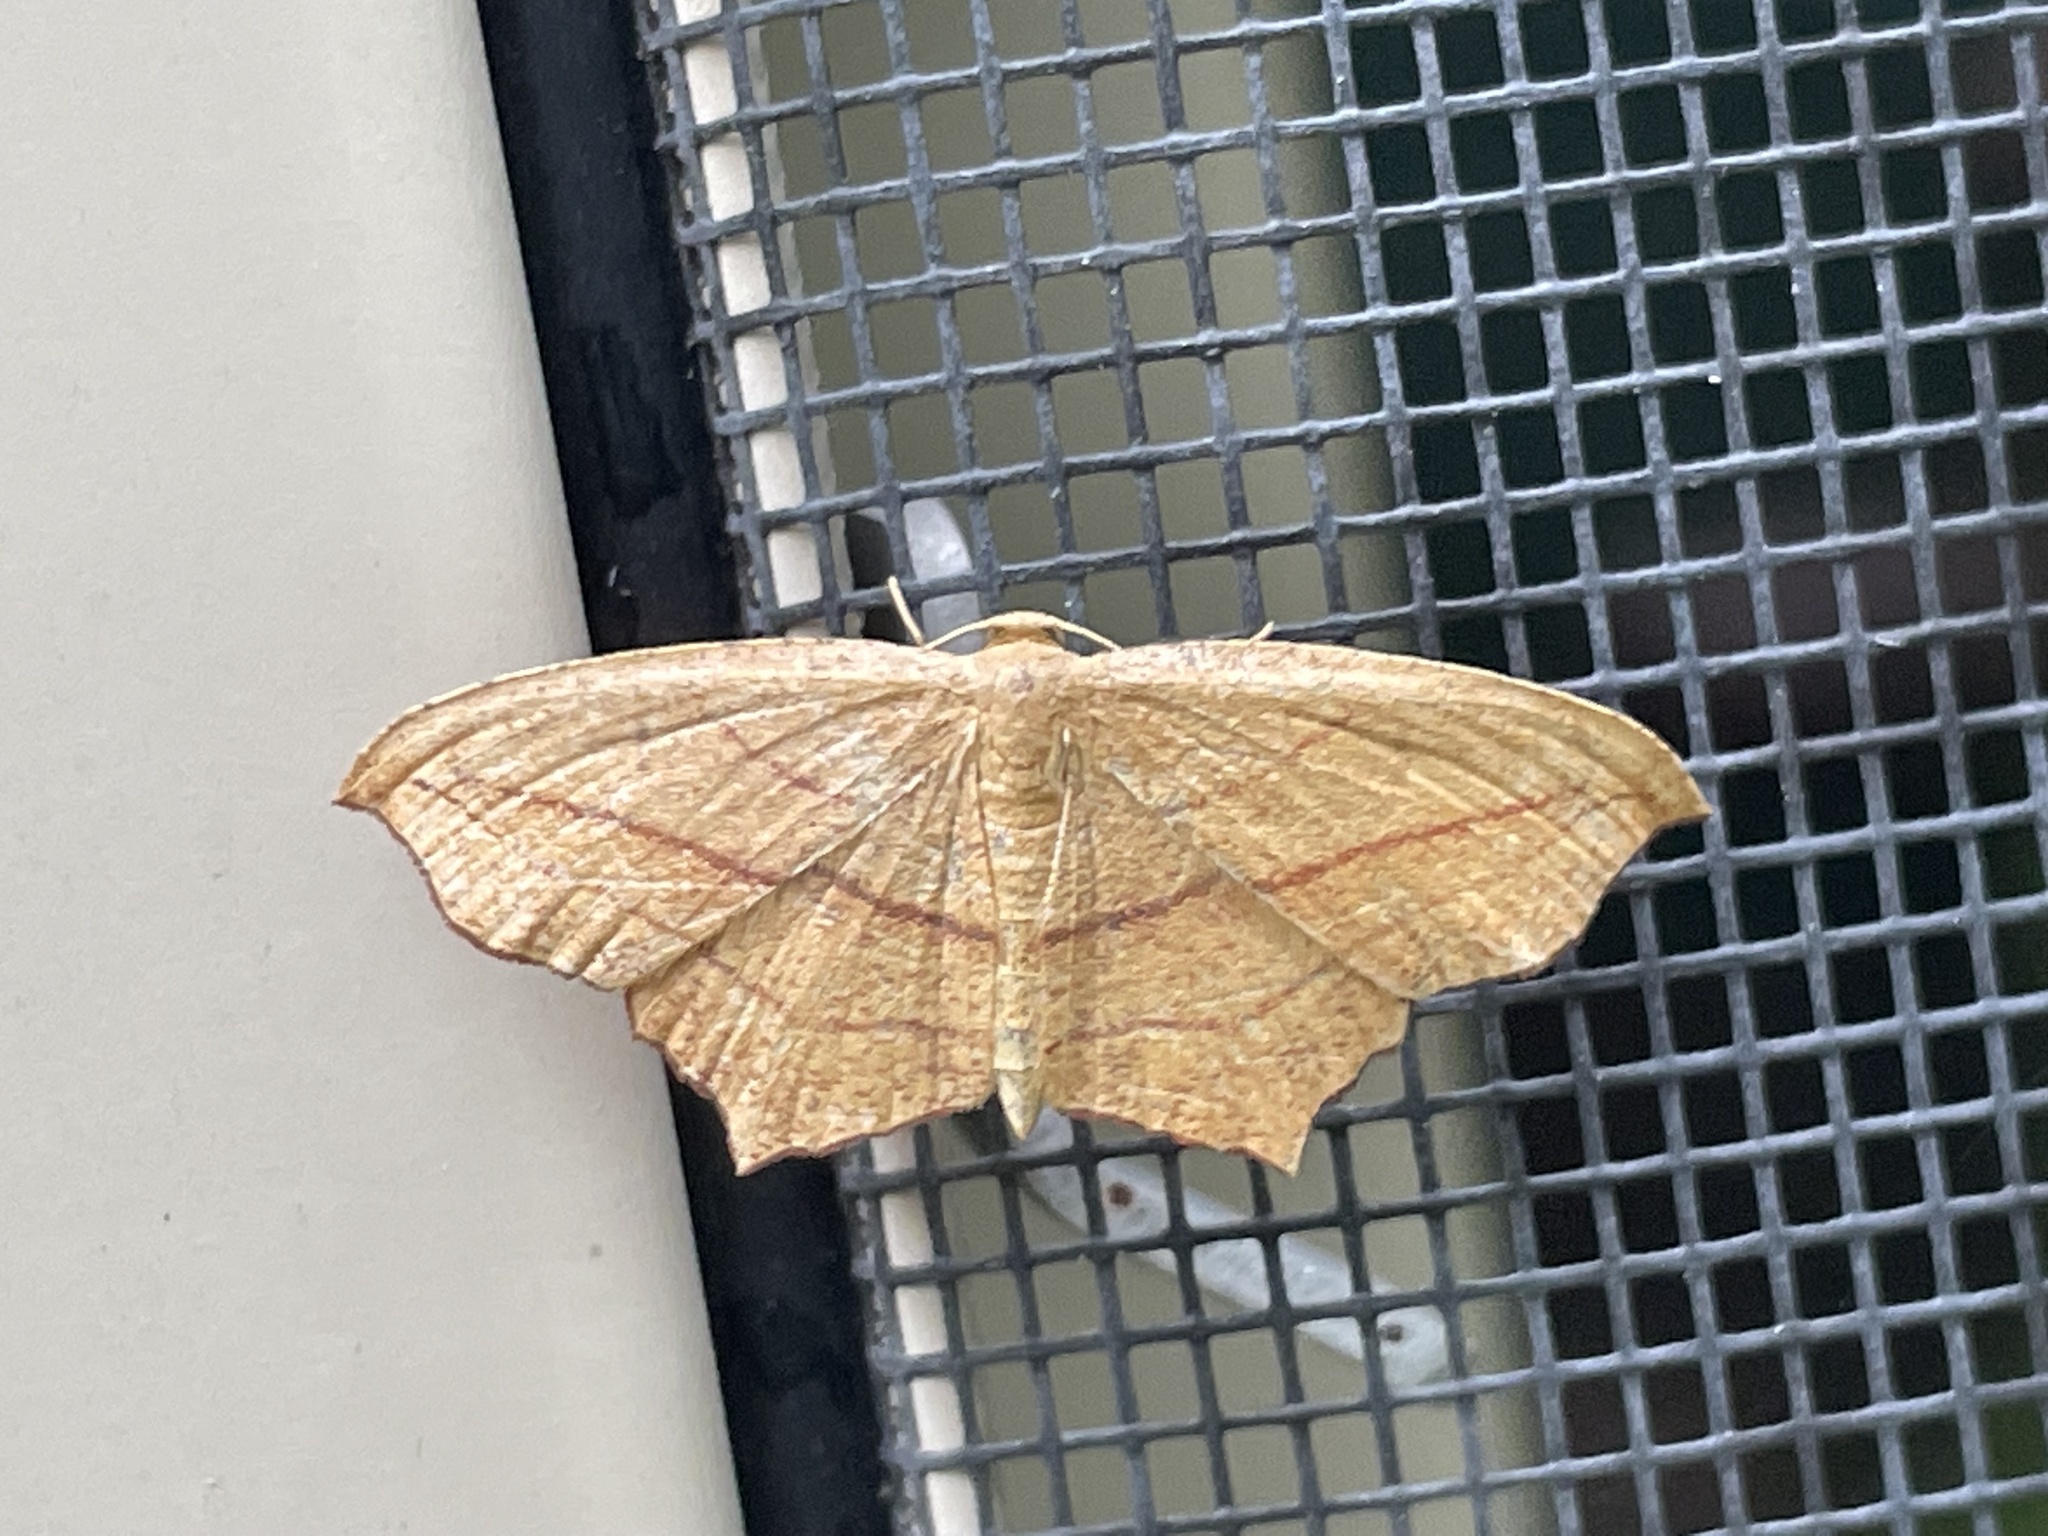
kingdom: Animalia
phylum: Arthropoda
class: Insecta
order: Lepidoptera
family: Geometridae
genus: Timandra
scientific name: Timandra amaturaria
